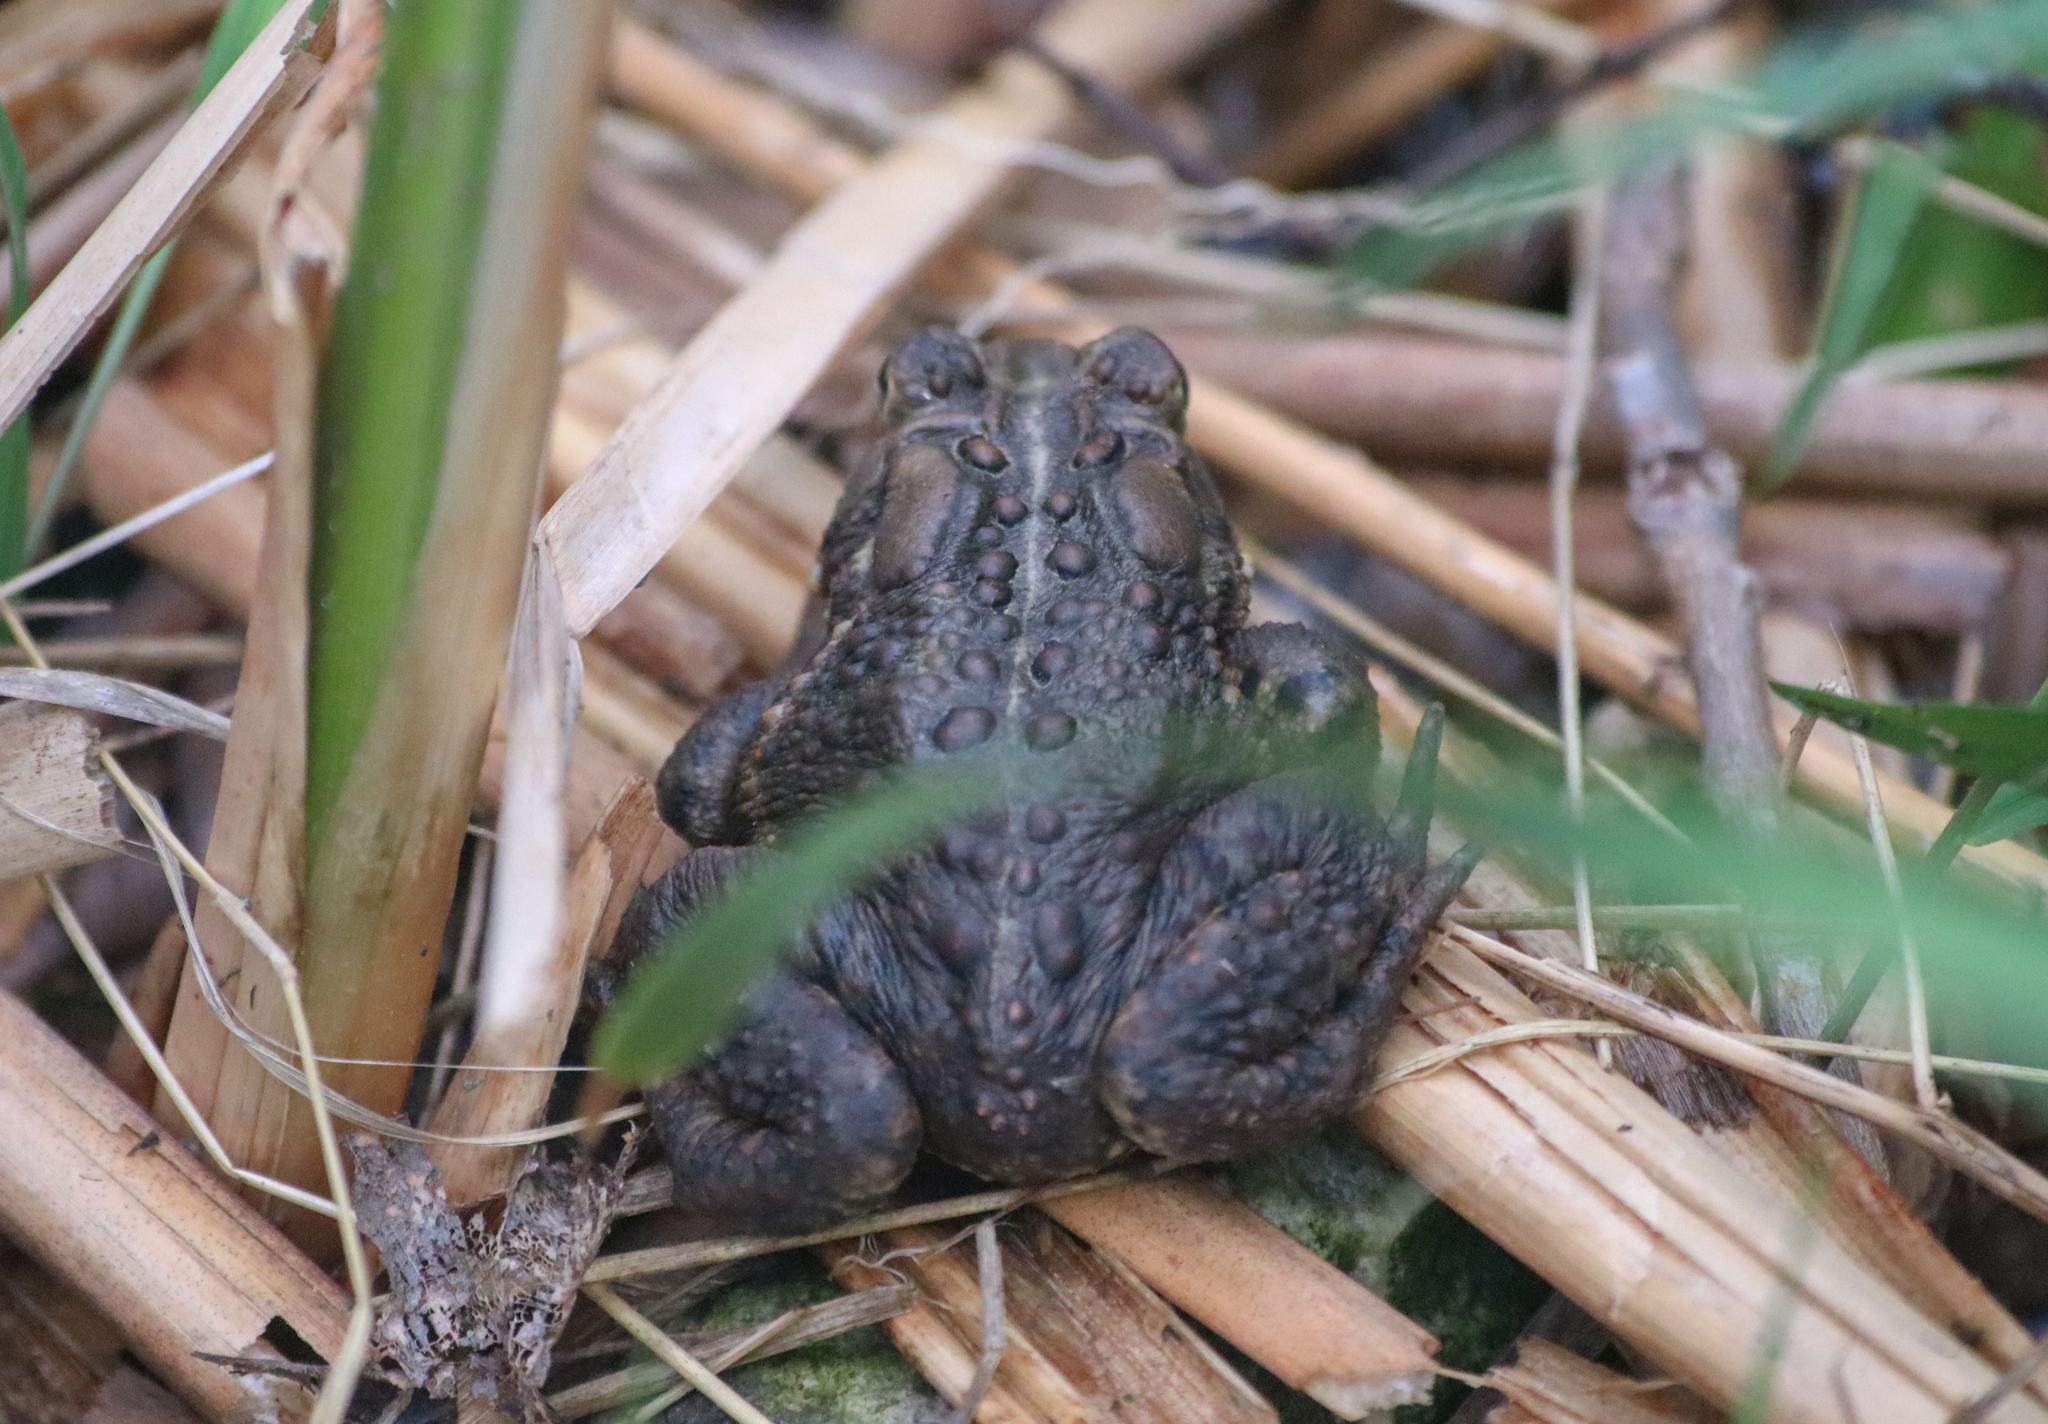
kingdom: Animalia
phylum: Chordata
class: Amphibia
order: Anura
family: Bufonidae
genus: Anaxyrus
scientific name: Anaxyrus americanus
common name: American toad
